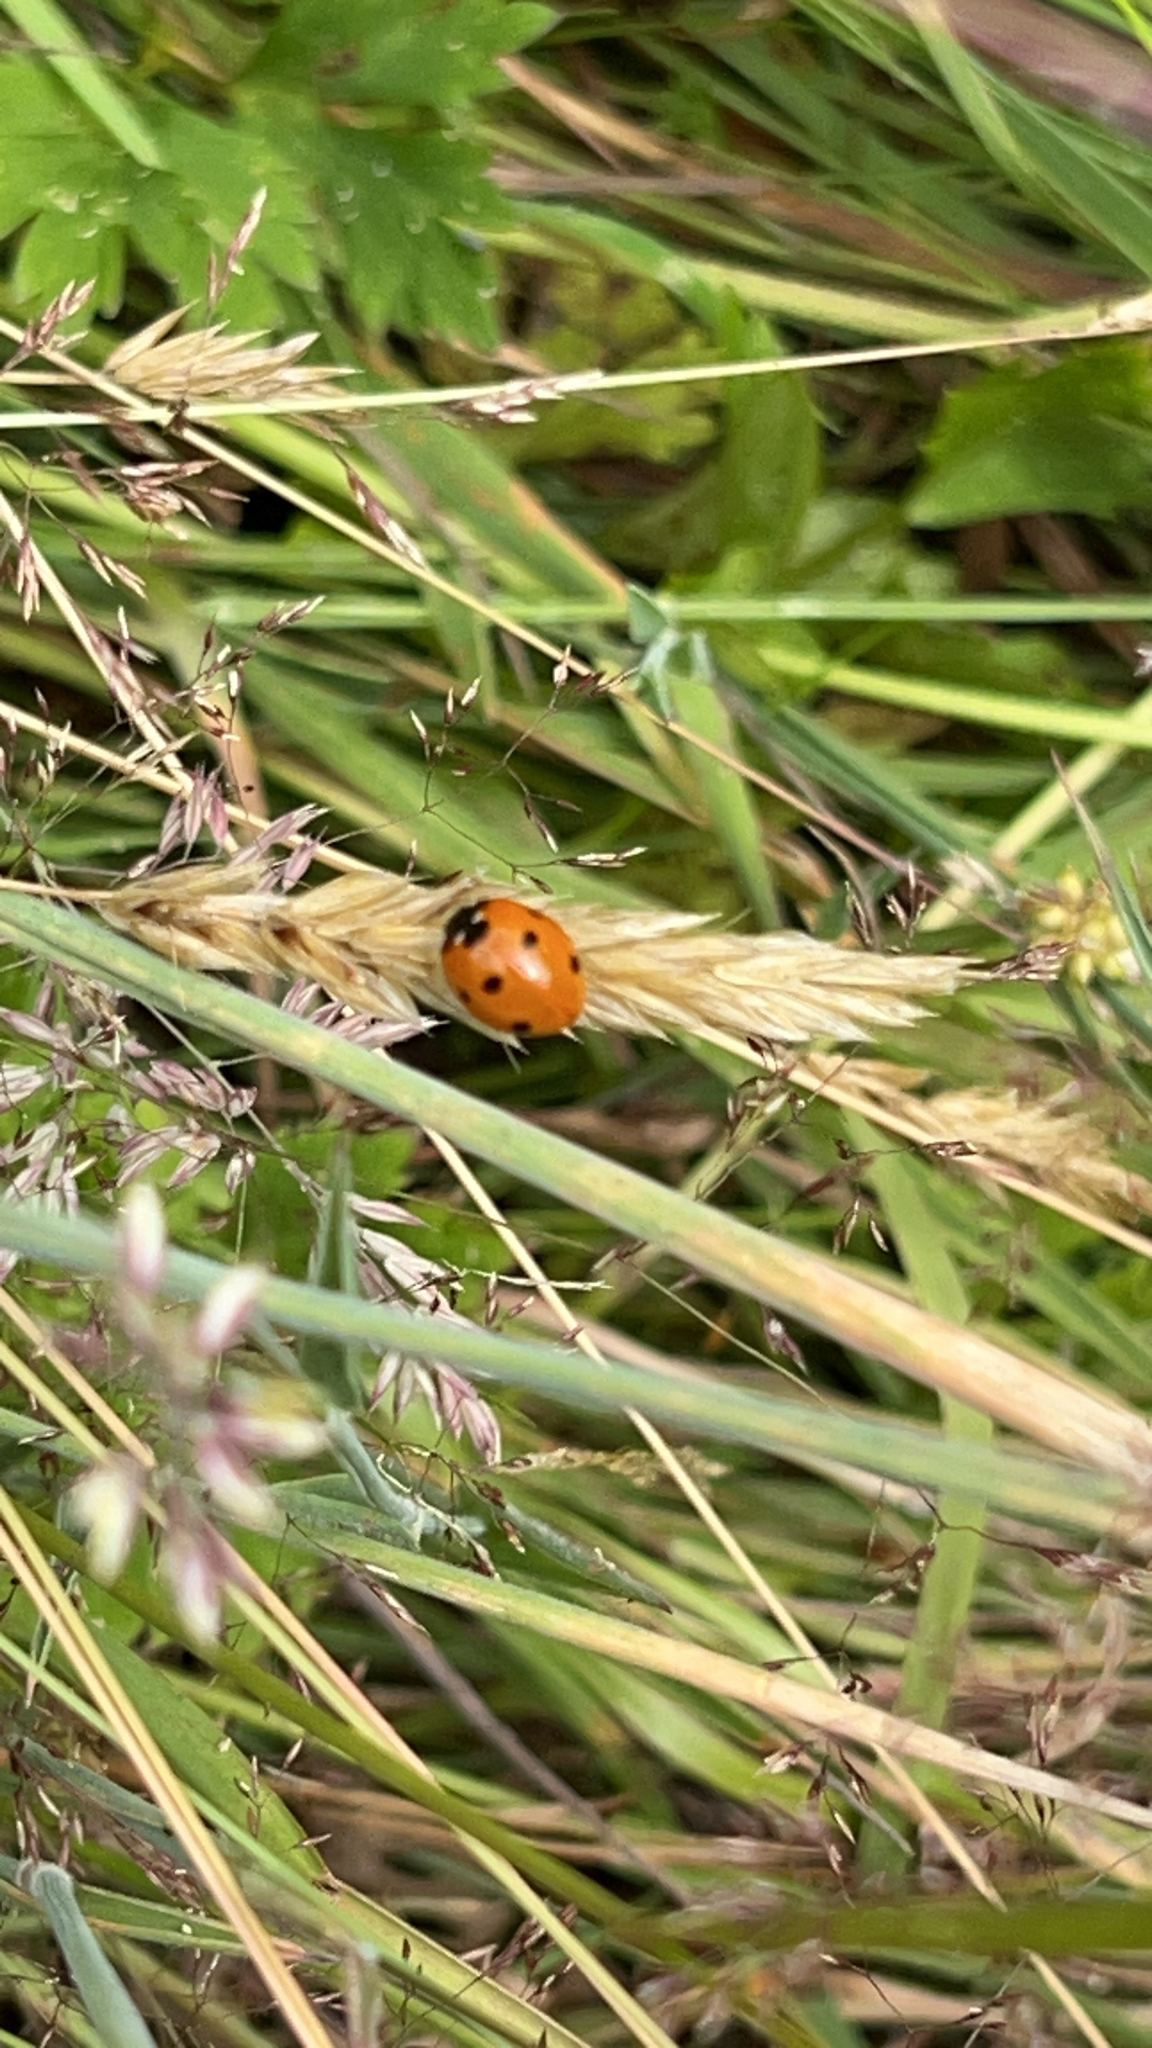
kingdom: Animalia
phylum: Arthropoda
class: Insecta
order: Coleoptera
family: Coccinellidae
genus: Coccinella
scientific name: Coccinella septempunctata
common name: Sevenspotted lady beetle
